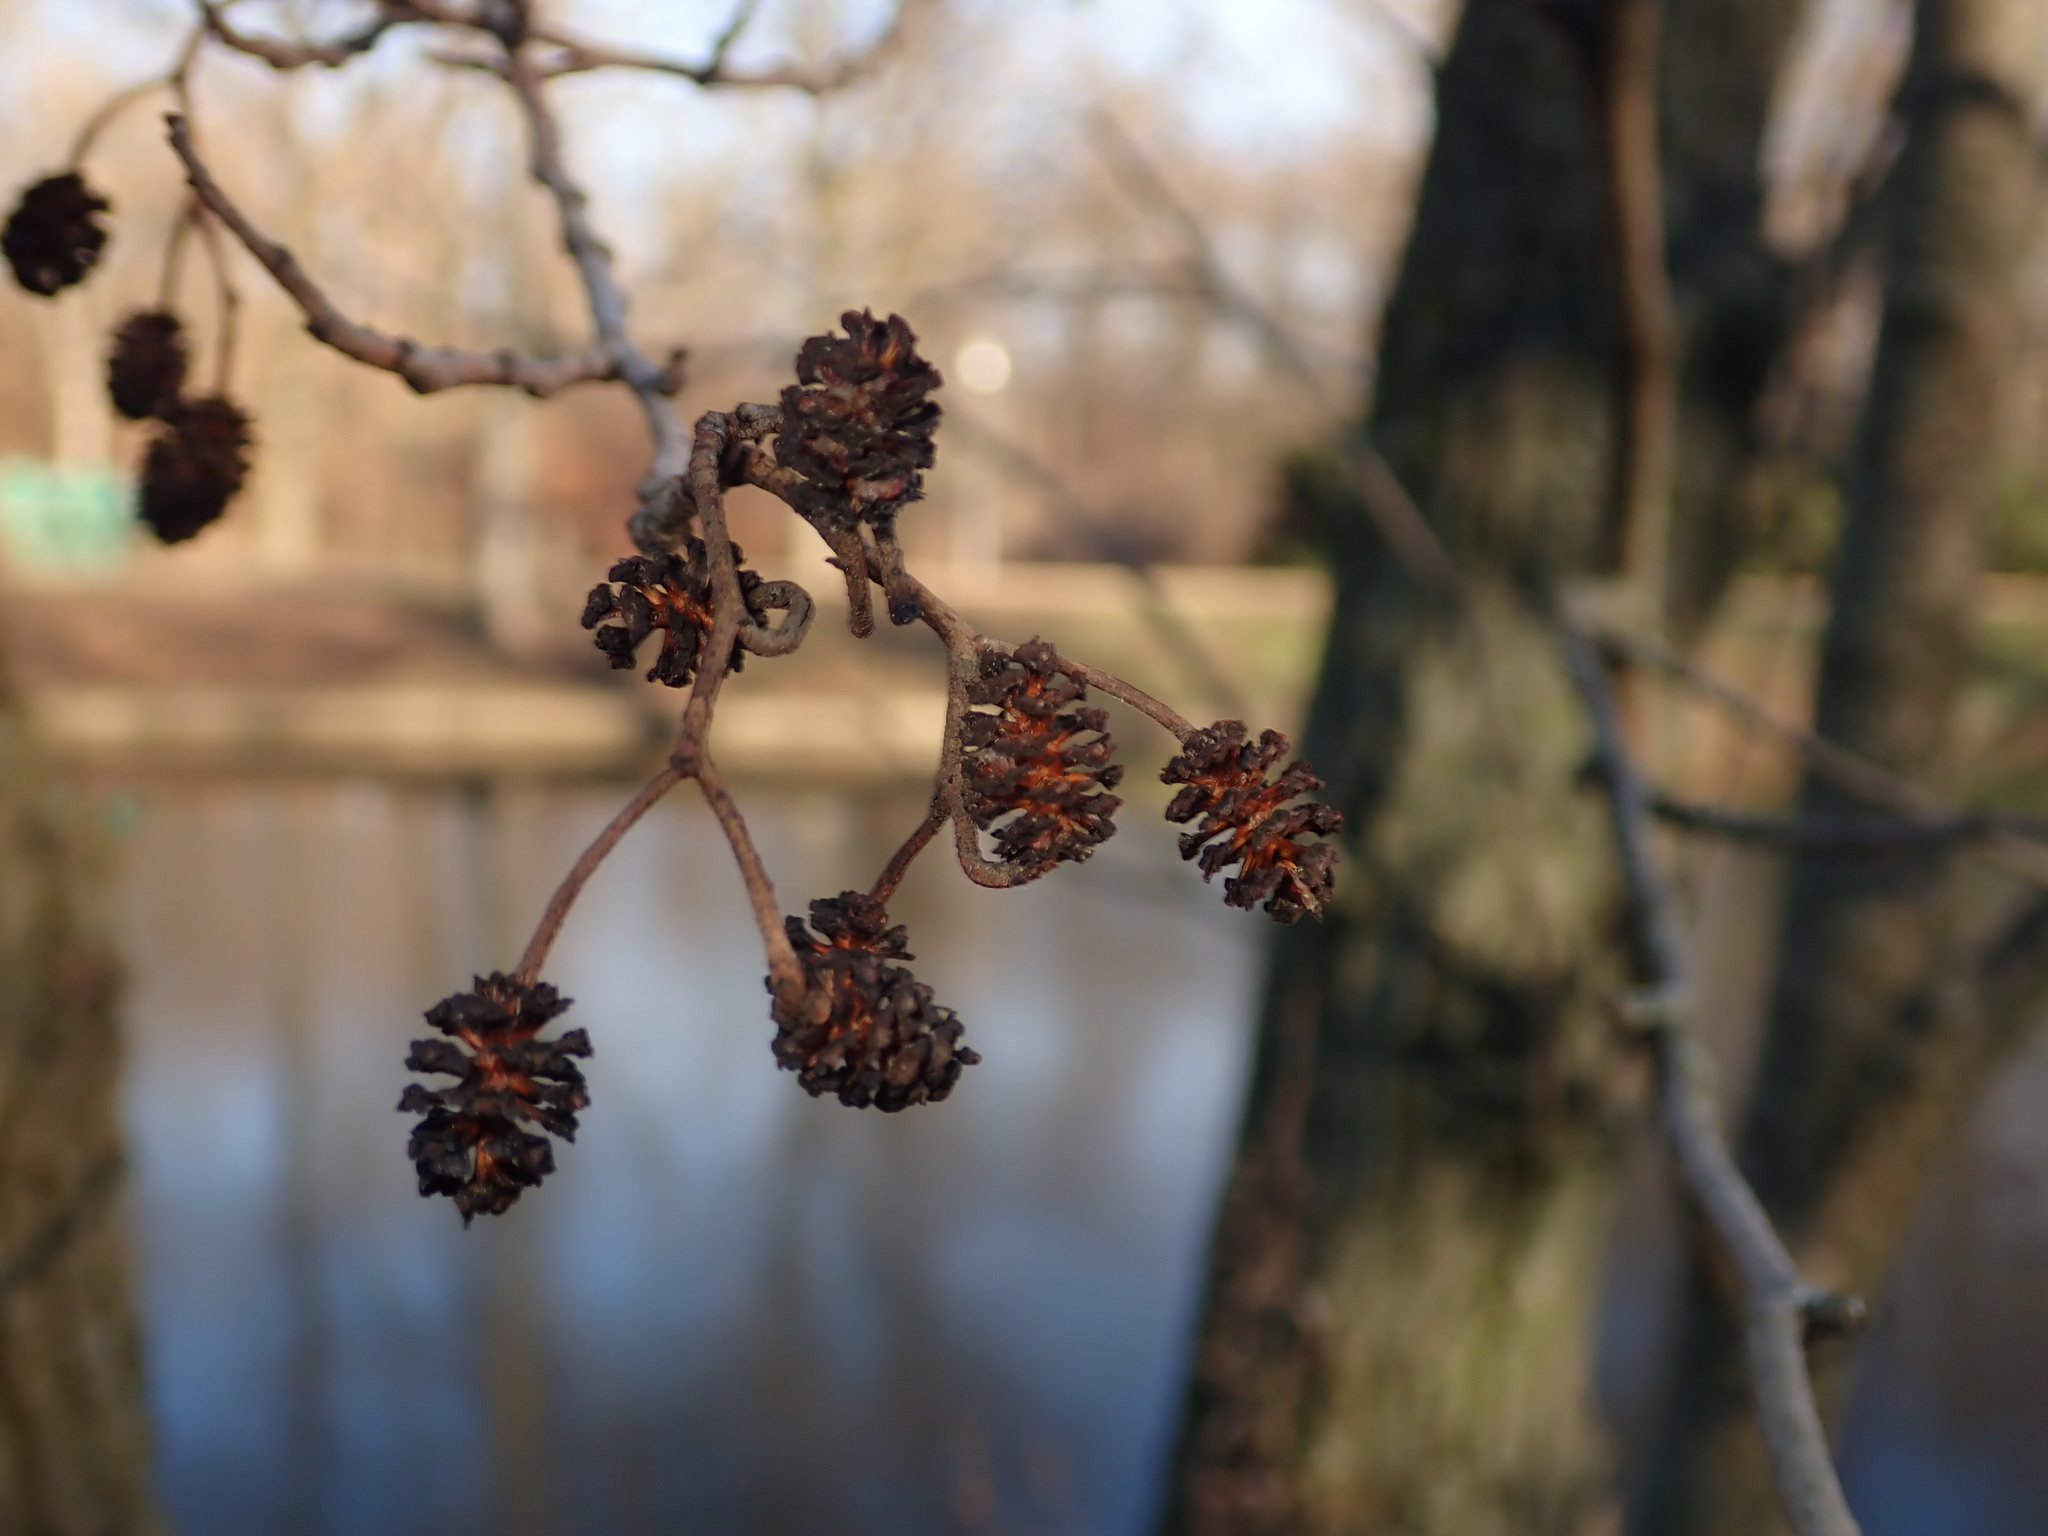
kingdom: Plantae
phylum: Tracheophyta
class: Magnoliopsida
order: Fagales
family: Betulaceae
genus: Alnus
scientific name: Alnus glutinosa
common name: Black alder
